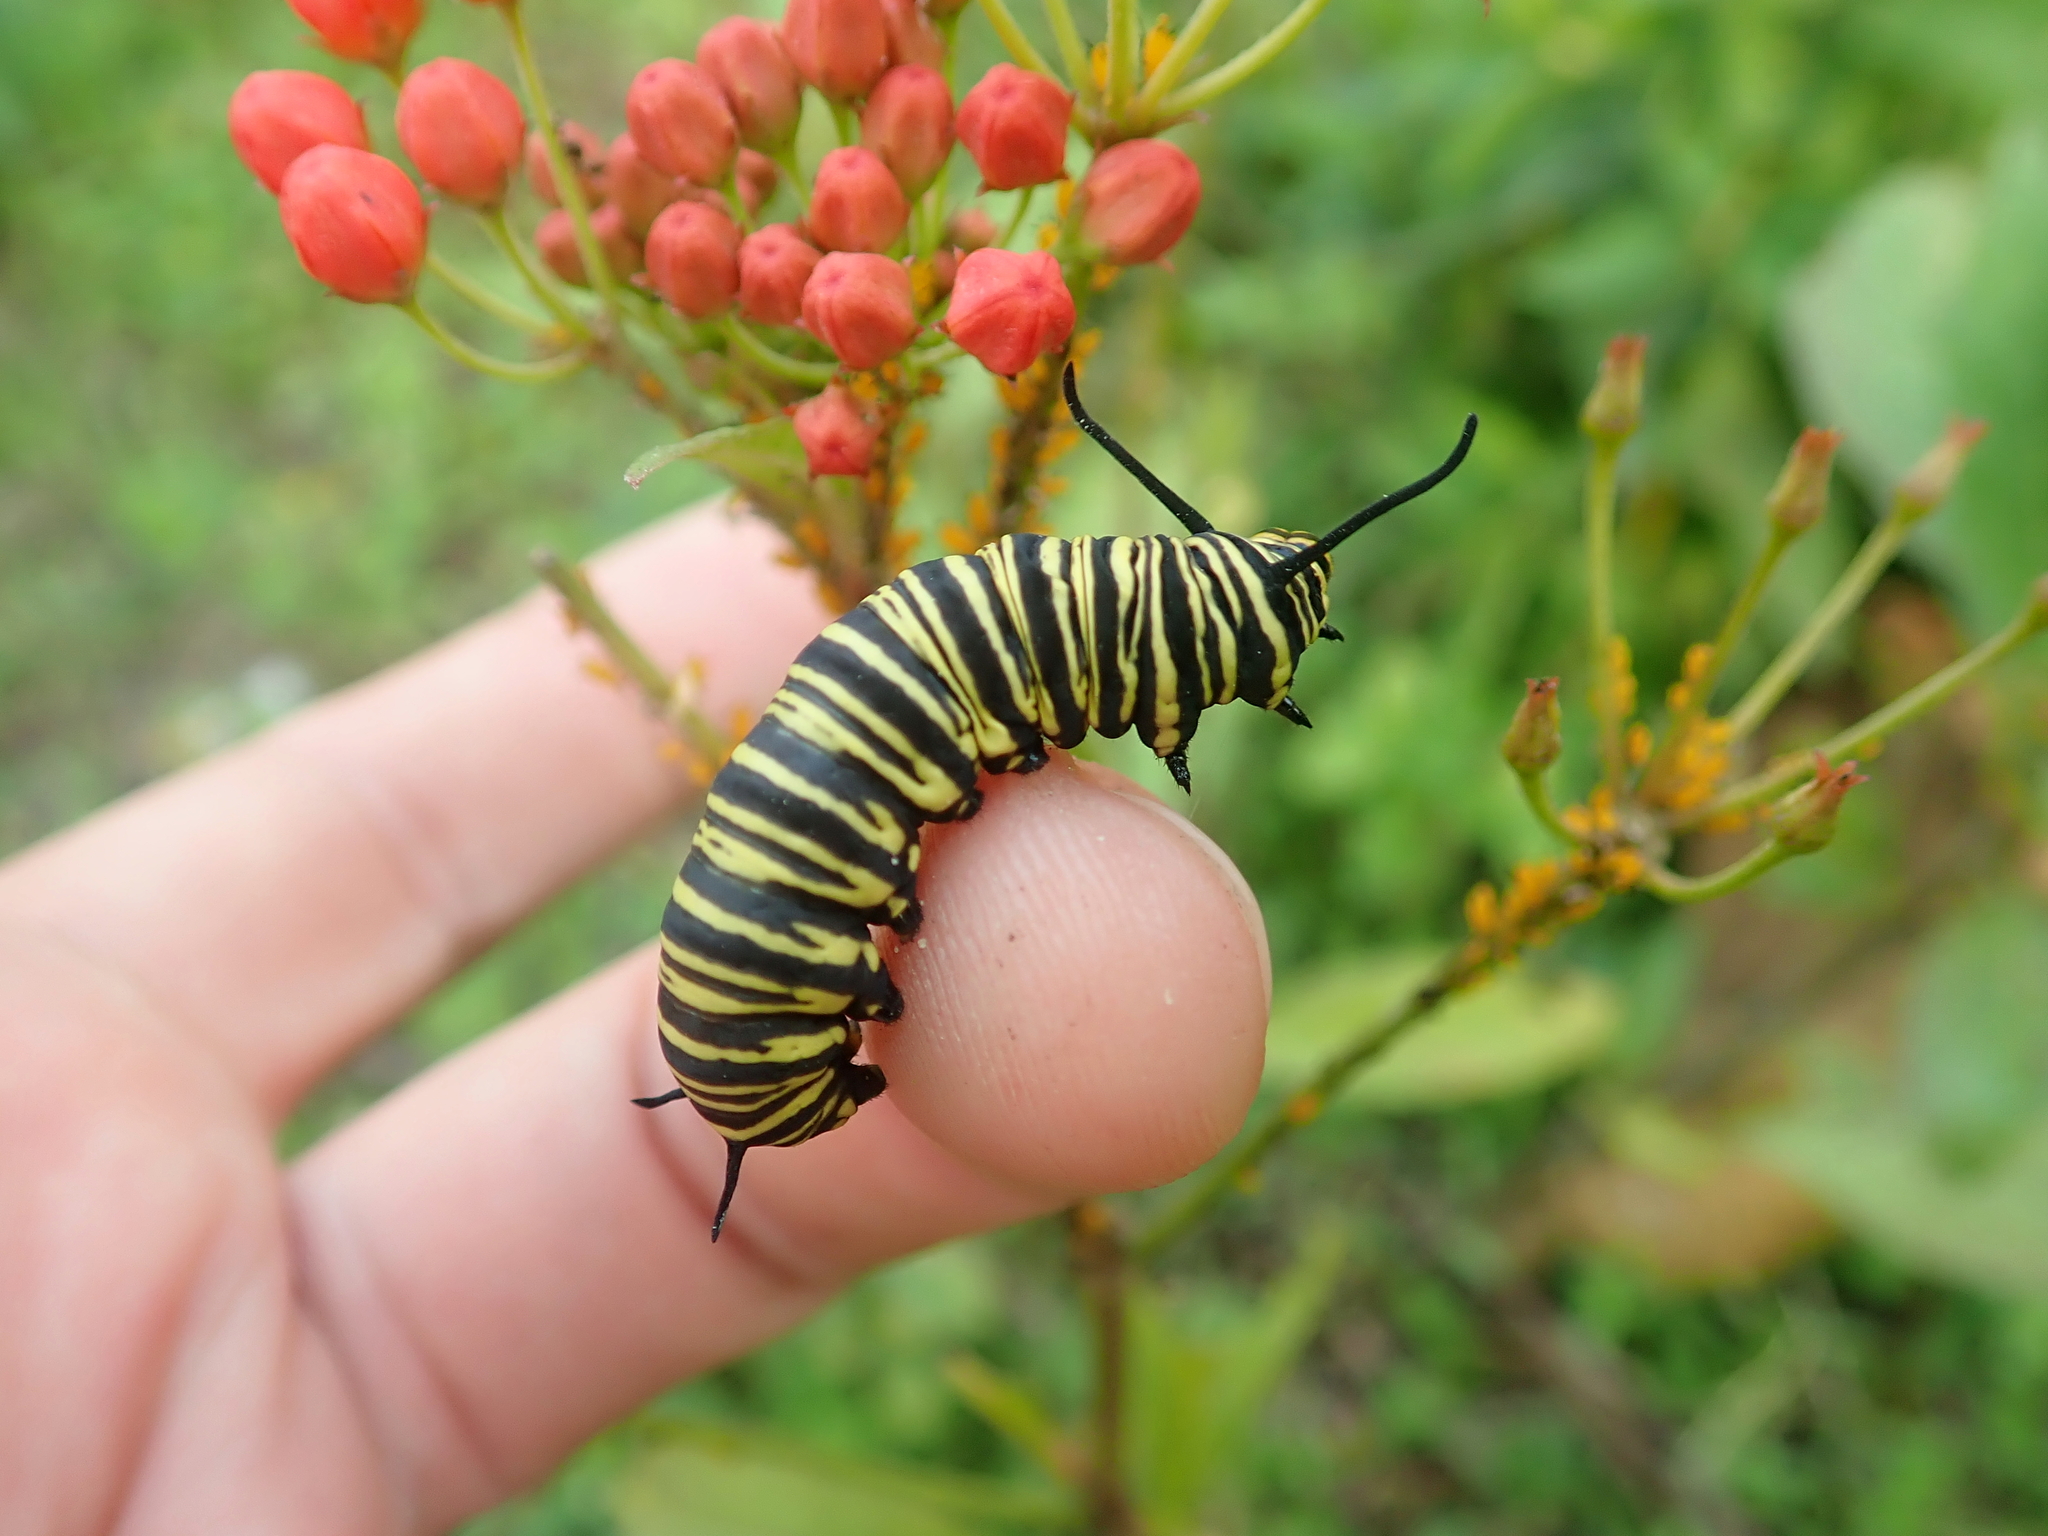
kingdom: Plantae
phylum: Tracheophyta
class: Magnoliopsida
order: Gentianales
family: Apocynaceae
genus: Asclepias
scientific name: Asclepias curassavica
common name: Bloodflower
